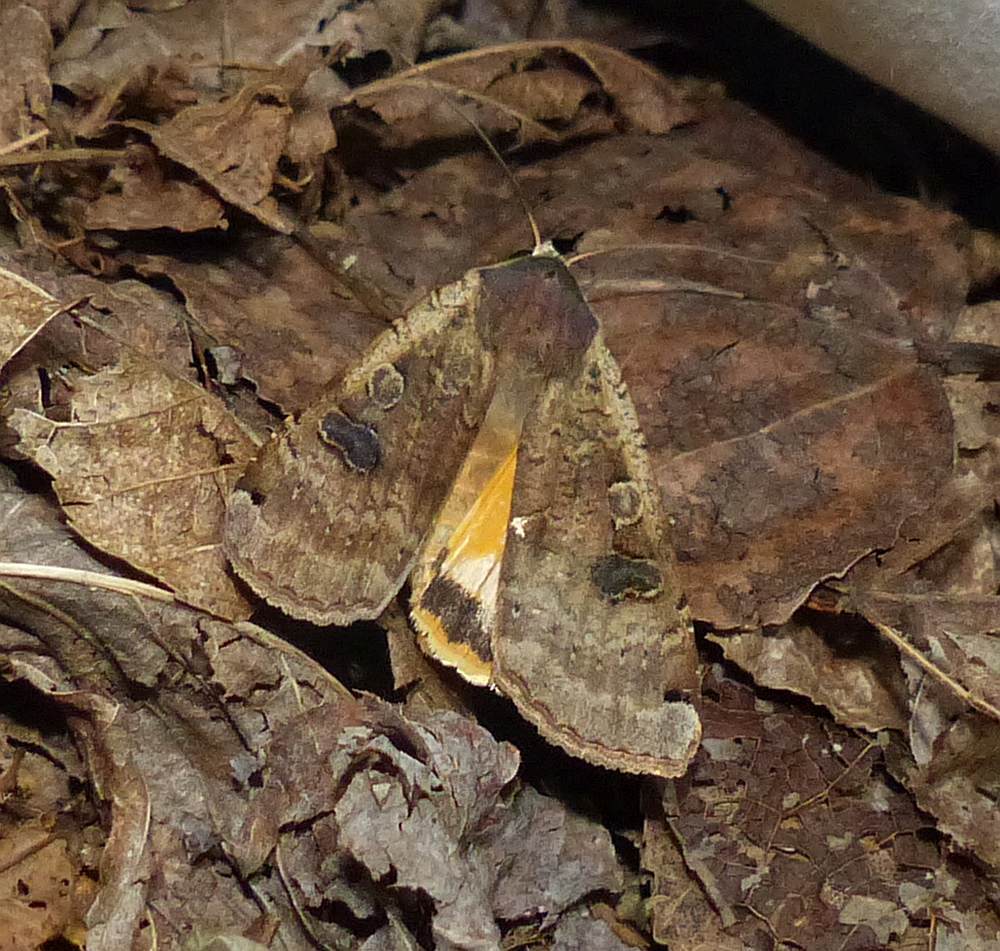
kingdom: Animalia
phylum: Arthropoda
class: Insecta
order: Lepidoptera
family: Noctuidae
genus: Noctua
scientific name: Noctua pronuba
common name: Large yellow underwing
